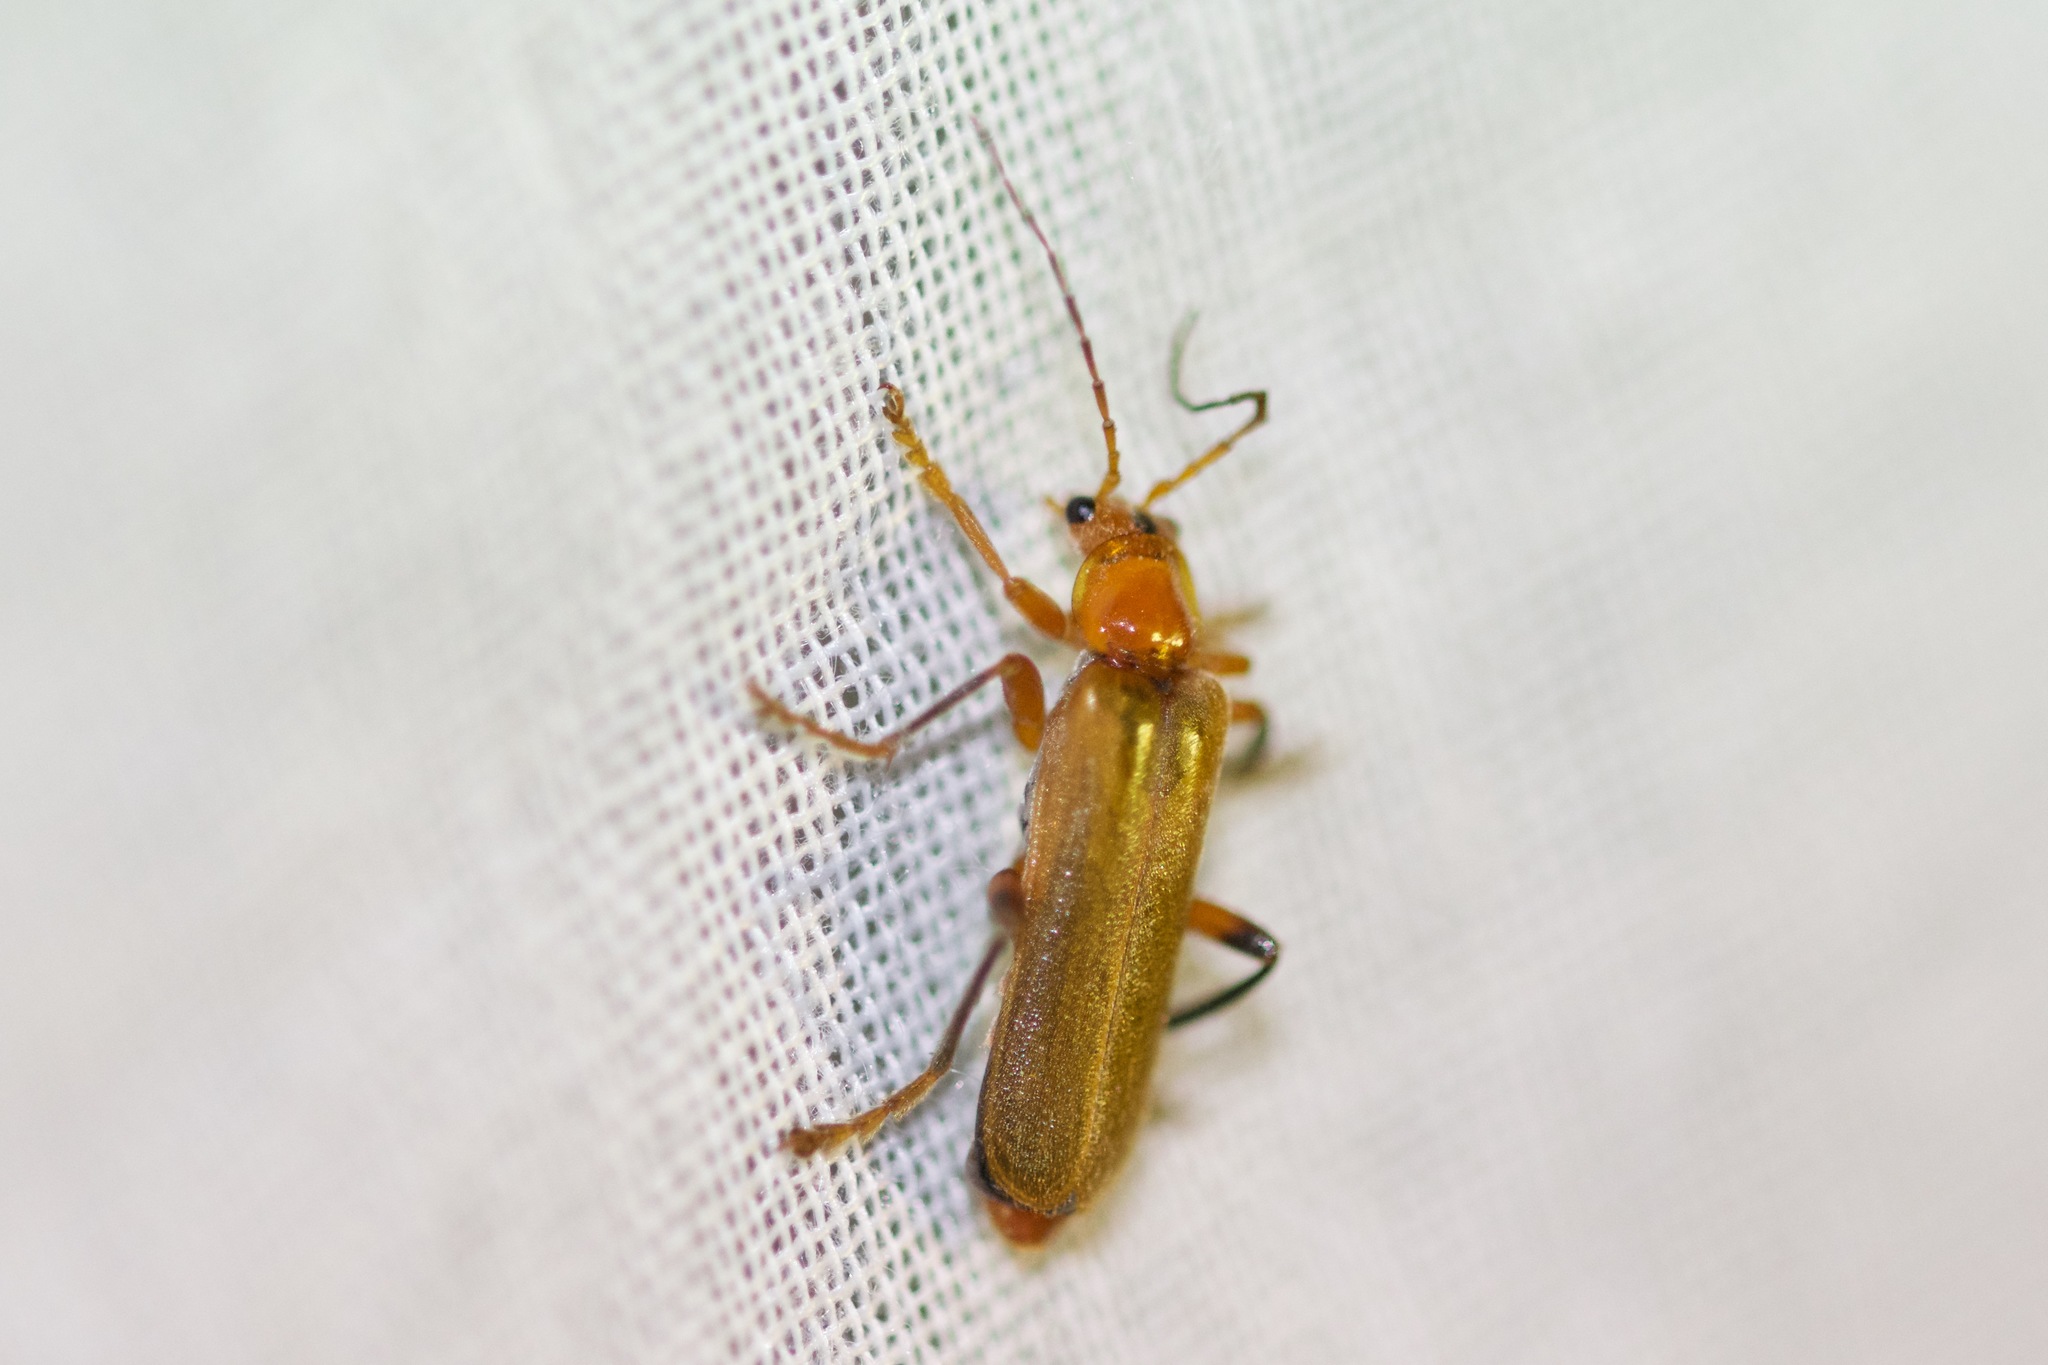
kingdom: Animalia
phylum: Arthropoda
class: Insecta
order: Coleoptera
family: Cantharidae
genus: Cantharis
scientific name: Cantharis livida
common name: Livid soldier beetle
